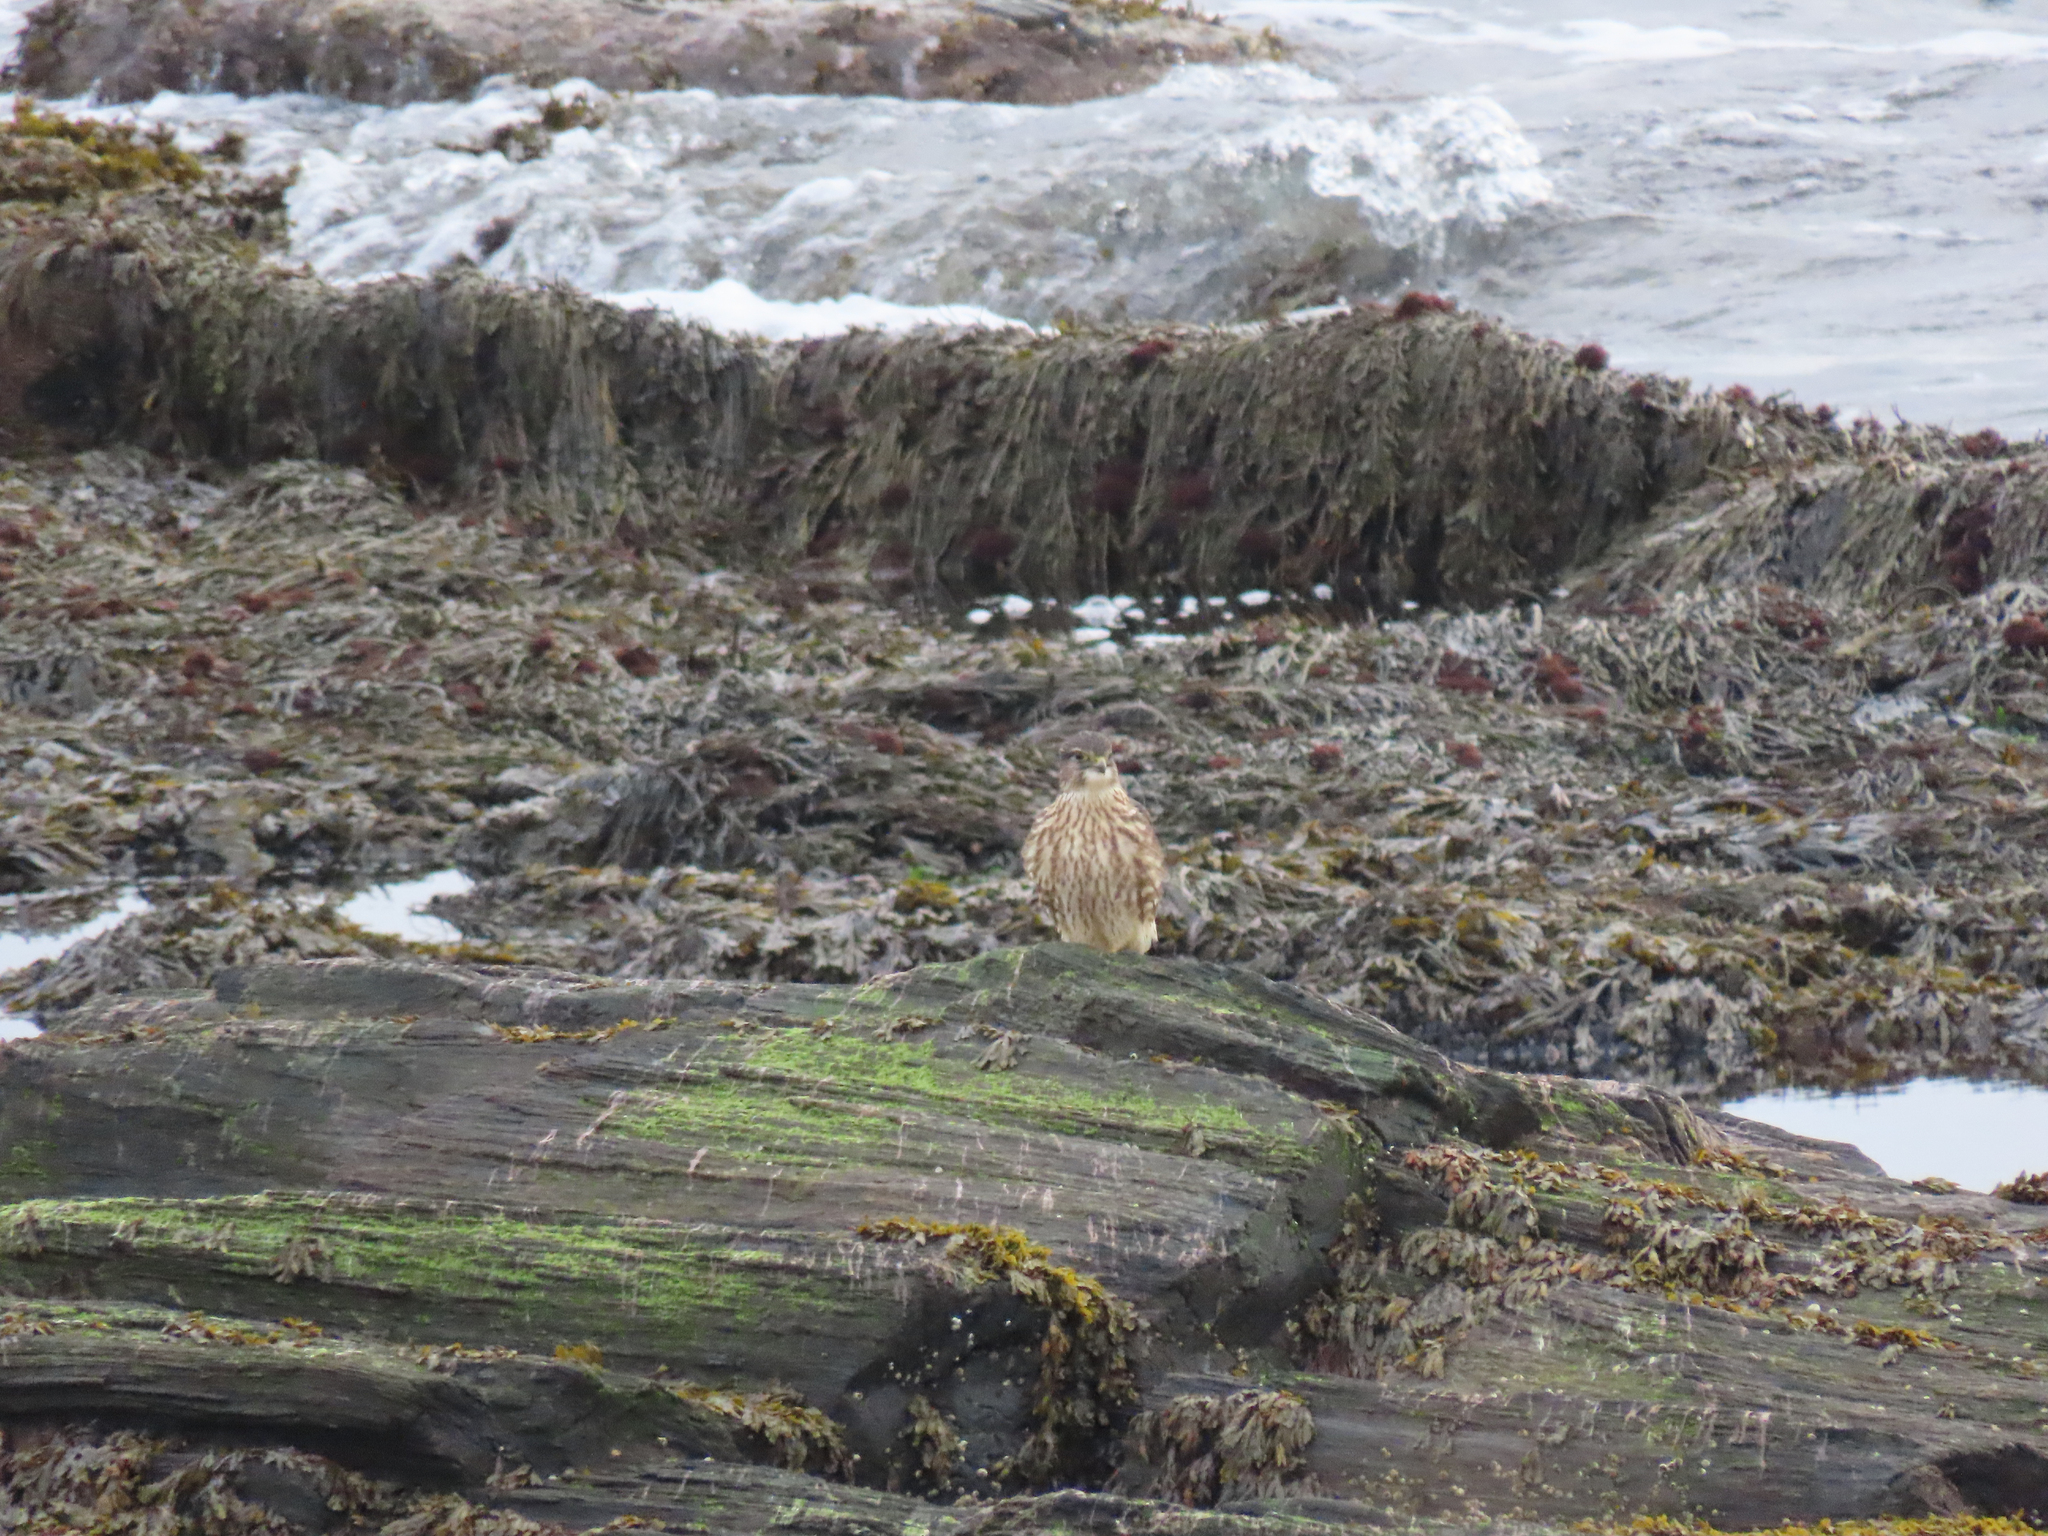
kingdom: Animalia
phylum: Chordata
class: Aves
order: Falconiformes
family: Falconidae
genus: Falco
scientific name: Falco columbarius
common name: Merlin
